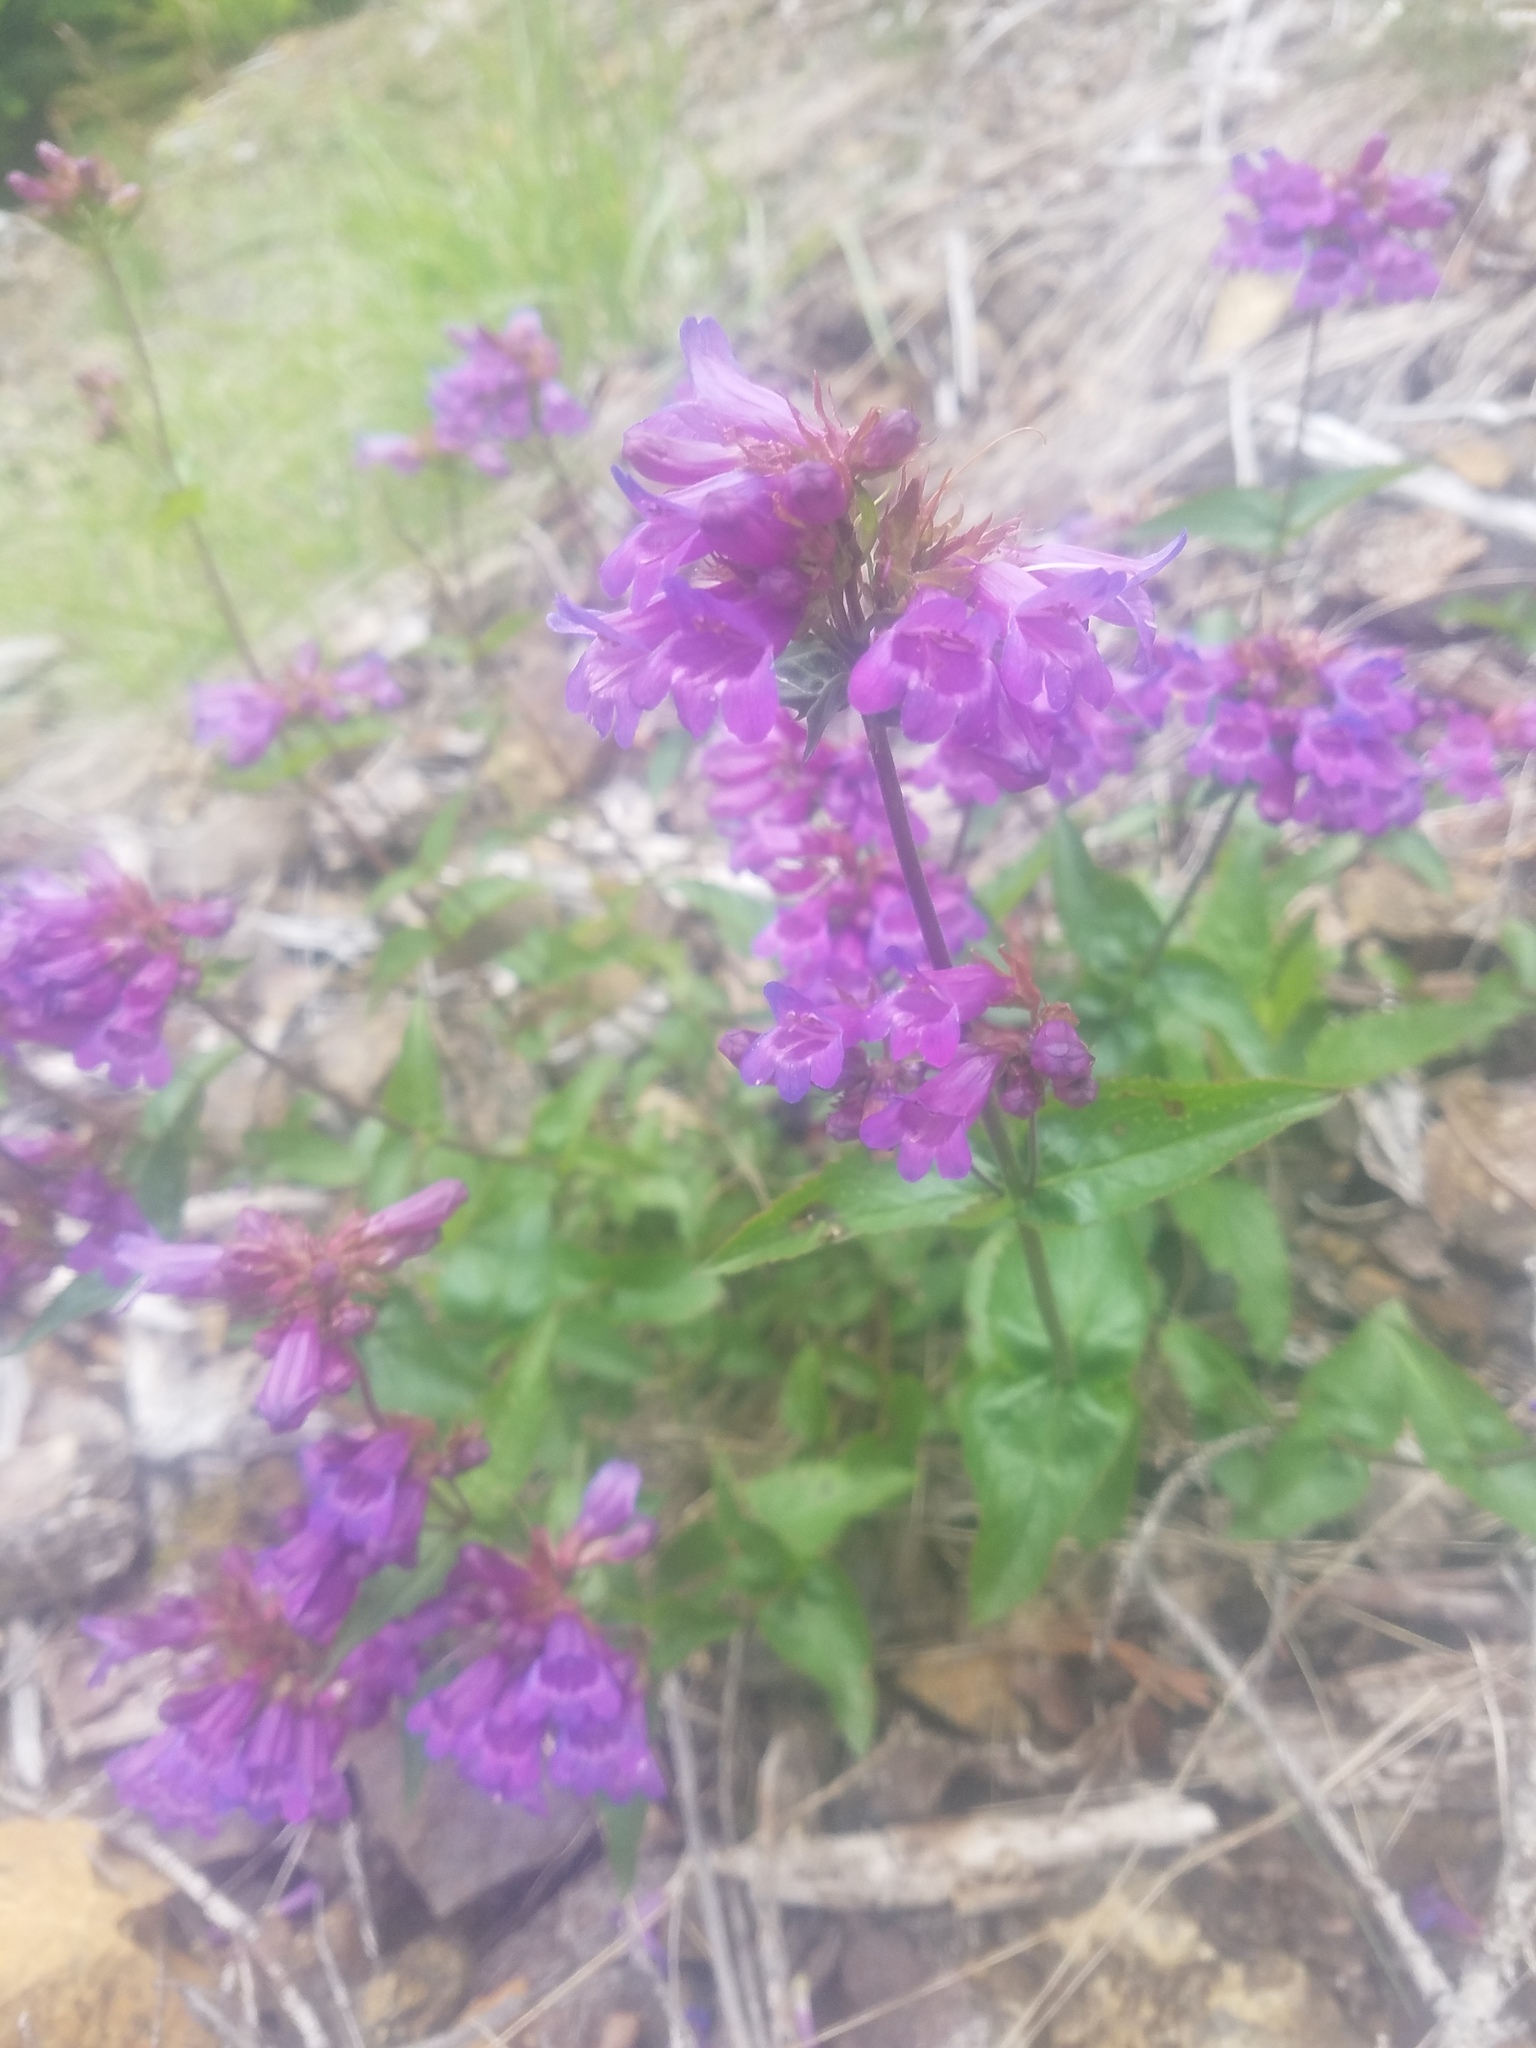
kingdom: Plantae
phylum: Tracheophyta
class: Magnoliopsida
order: Lamiales
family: Plantaginaceae
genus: Penstemon
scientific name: Penstemon serrulatus
